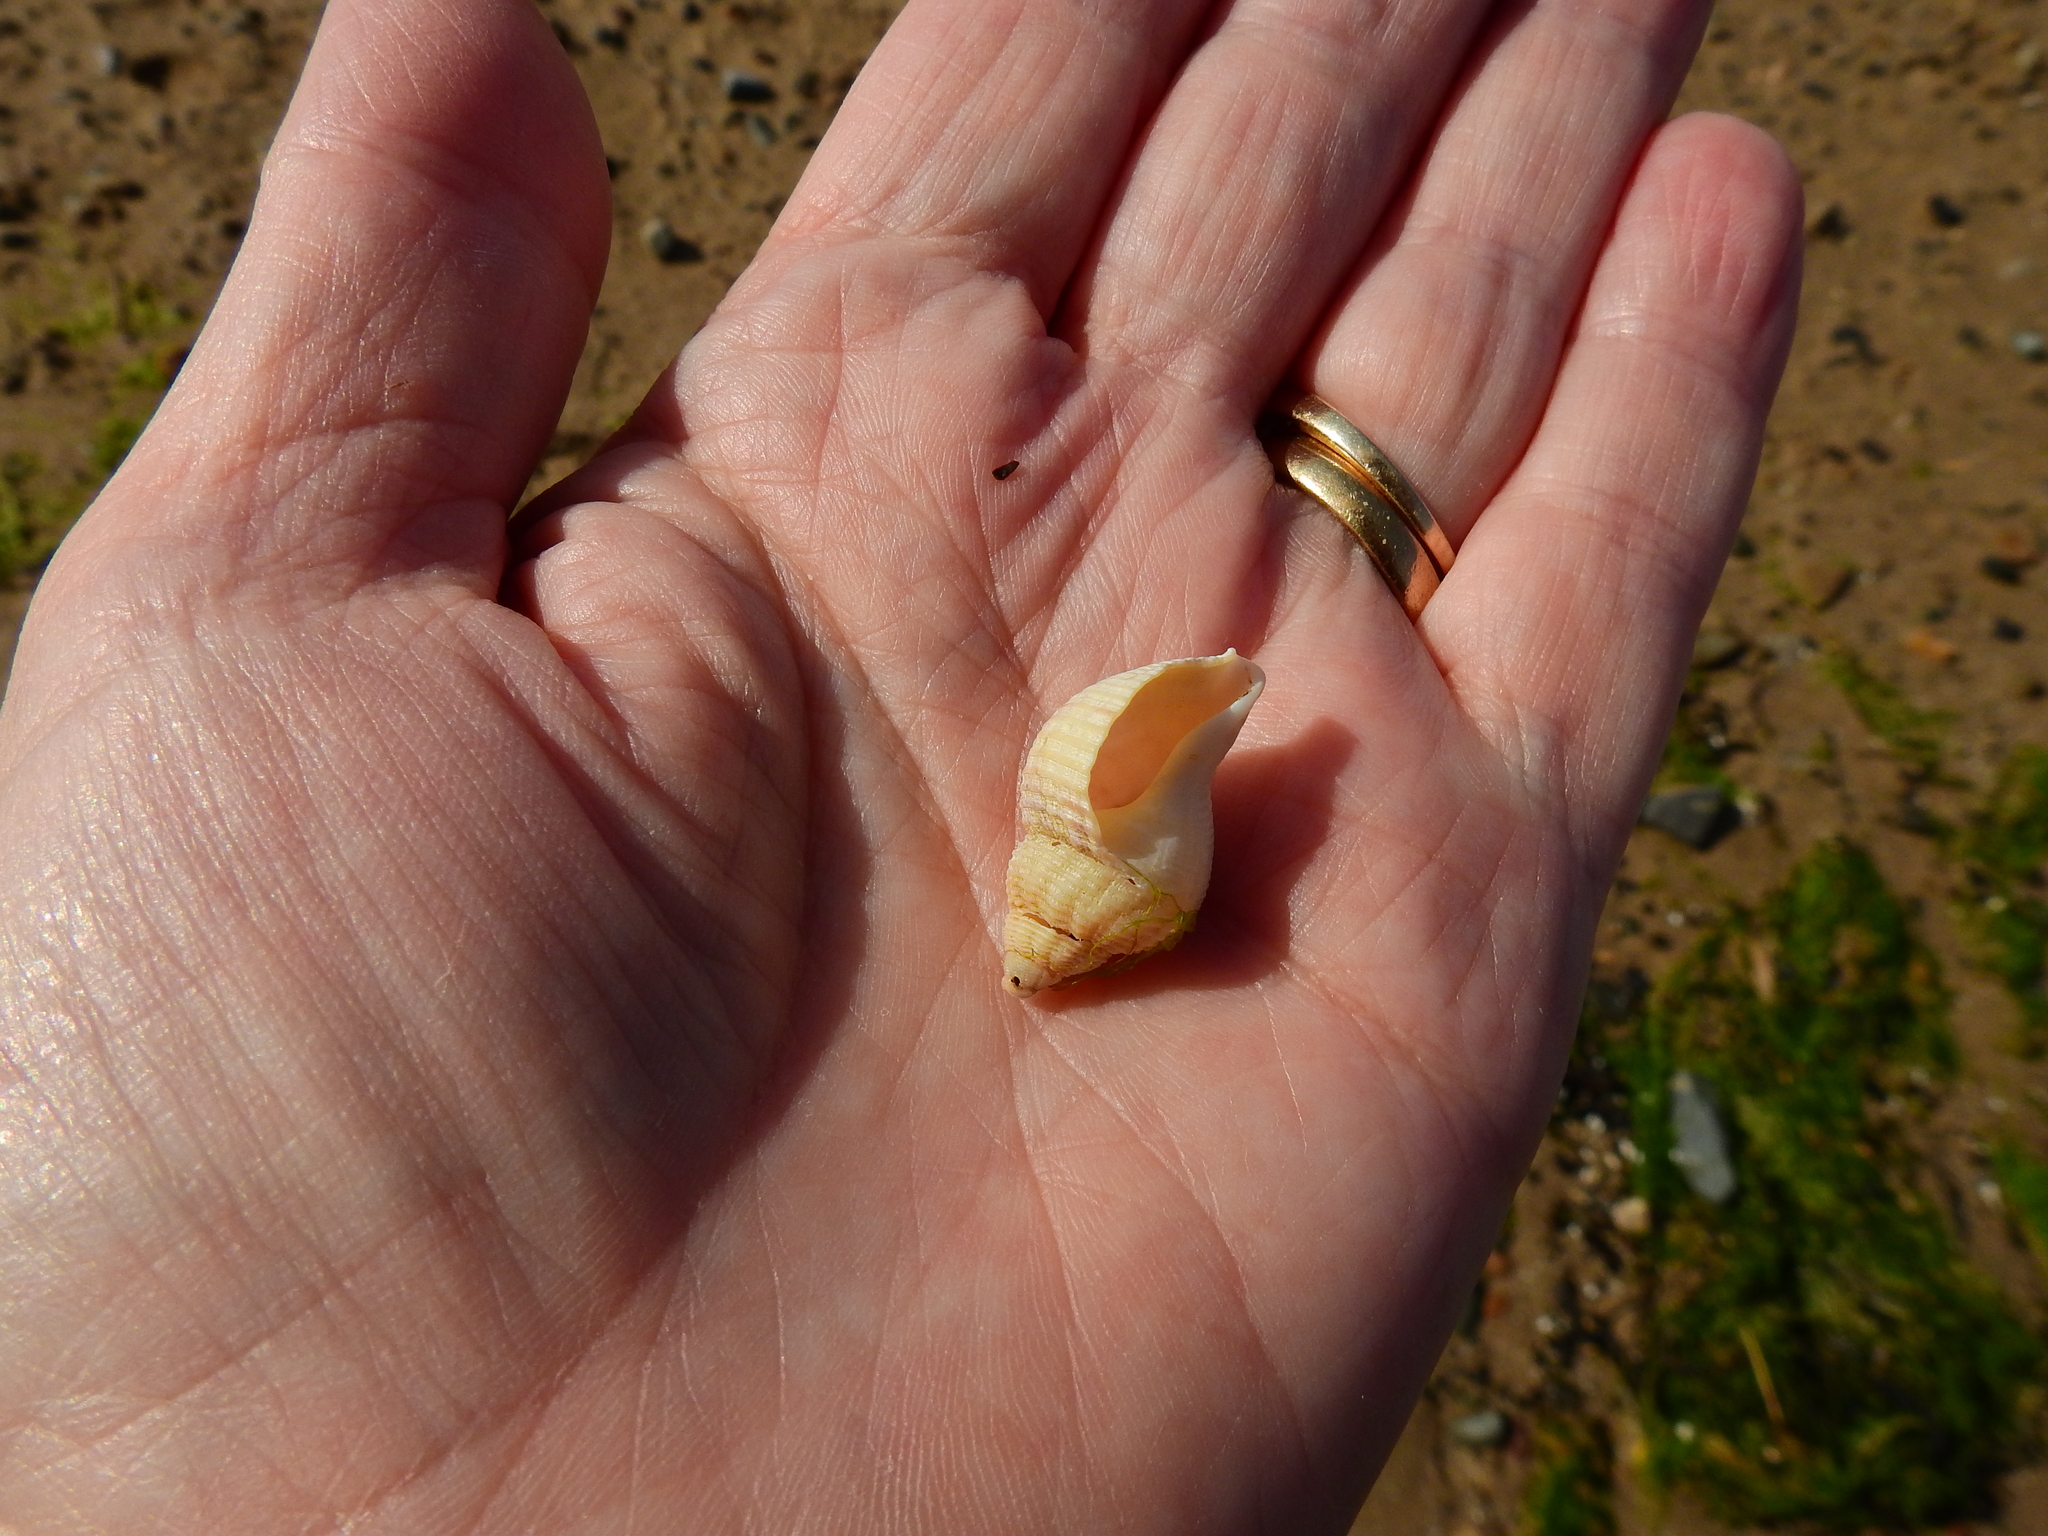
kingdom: Animalia
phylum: Mollusca
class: Gastropoda
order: Neogastropoda
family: Muricidae
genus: Nucella
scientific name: Nucella lapillus
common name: Dog whelk
